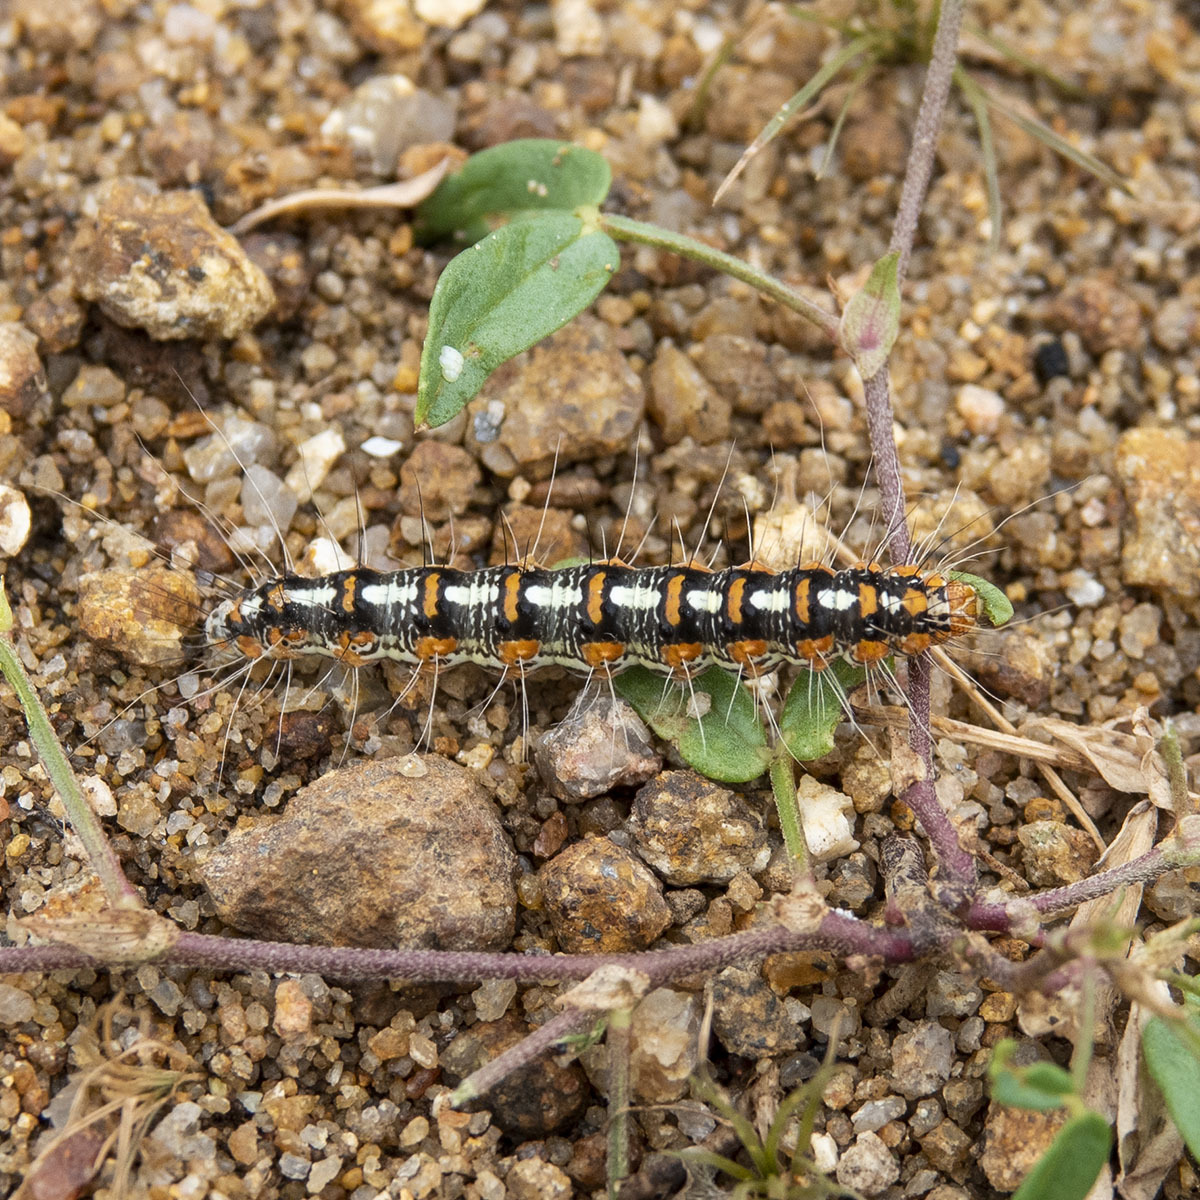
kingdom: Animalia
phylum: Arthropoda
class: Insecta
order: Lepidoptera
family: Erebidae
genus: Utetheisa
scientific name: Utetheisa pulchelloides
